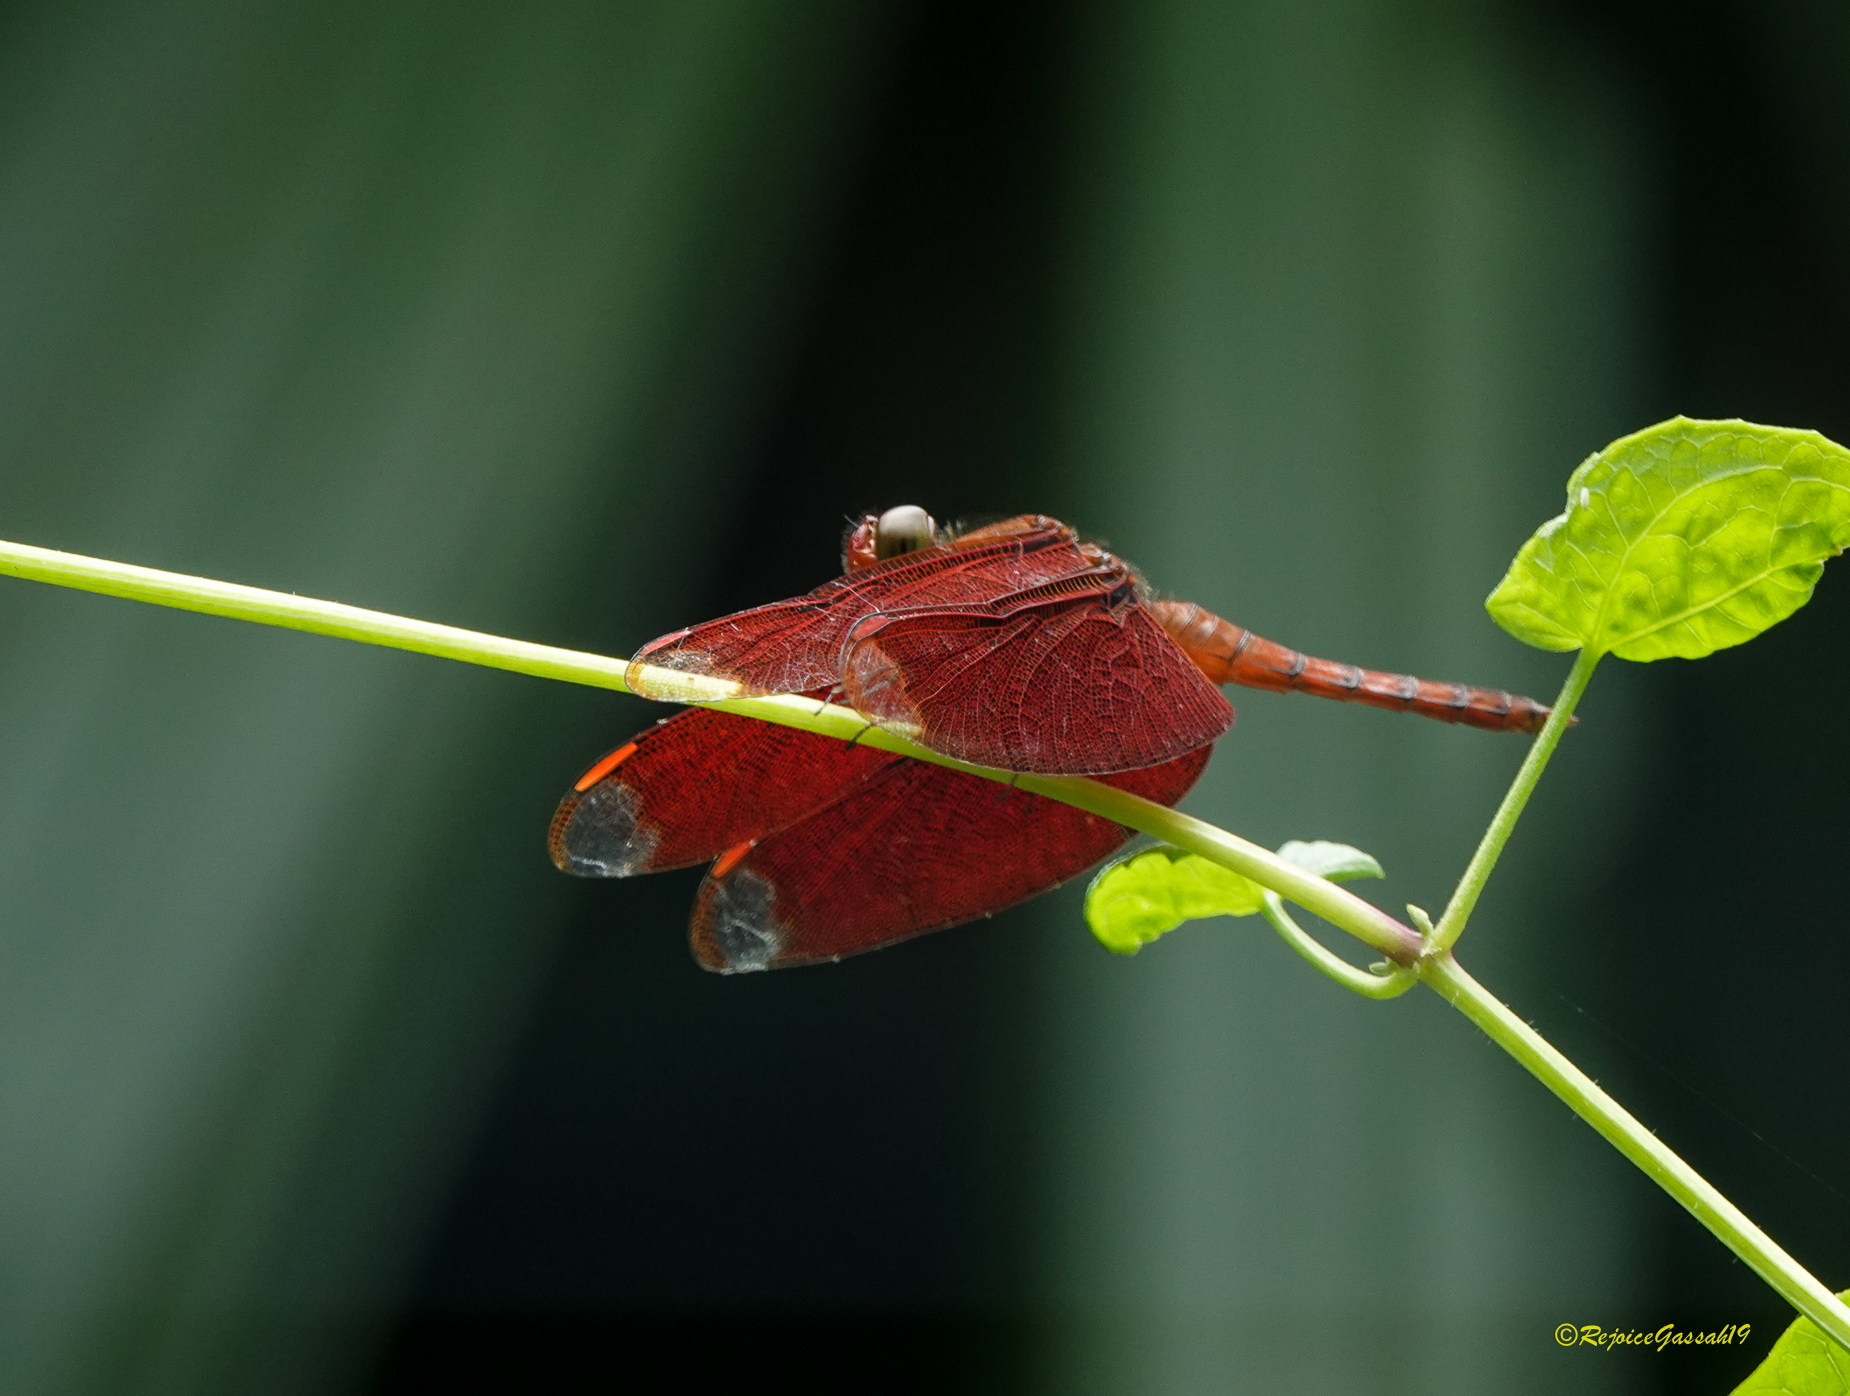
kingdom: Animalia
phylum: Arthropoda
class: Insecta
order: Odonata
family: Libellulidae
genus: Neurothemis
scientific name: Neurothemis fulvia
